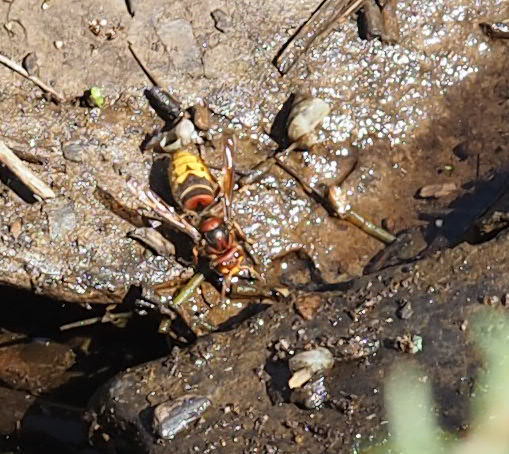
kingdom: Animalia
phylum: Arthropoda
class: Insecta
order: Hymenoptera
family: Vespidae
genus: Vespa
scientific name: Vespa crabro
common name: Hornet
